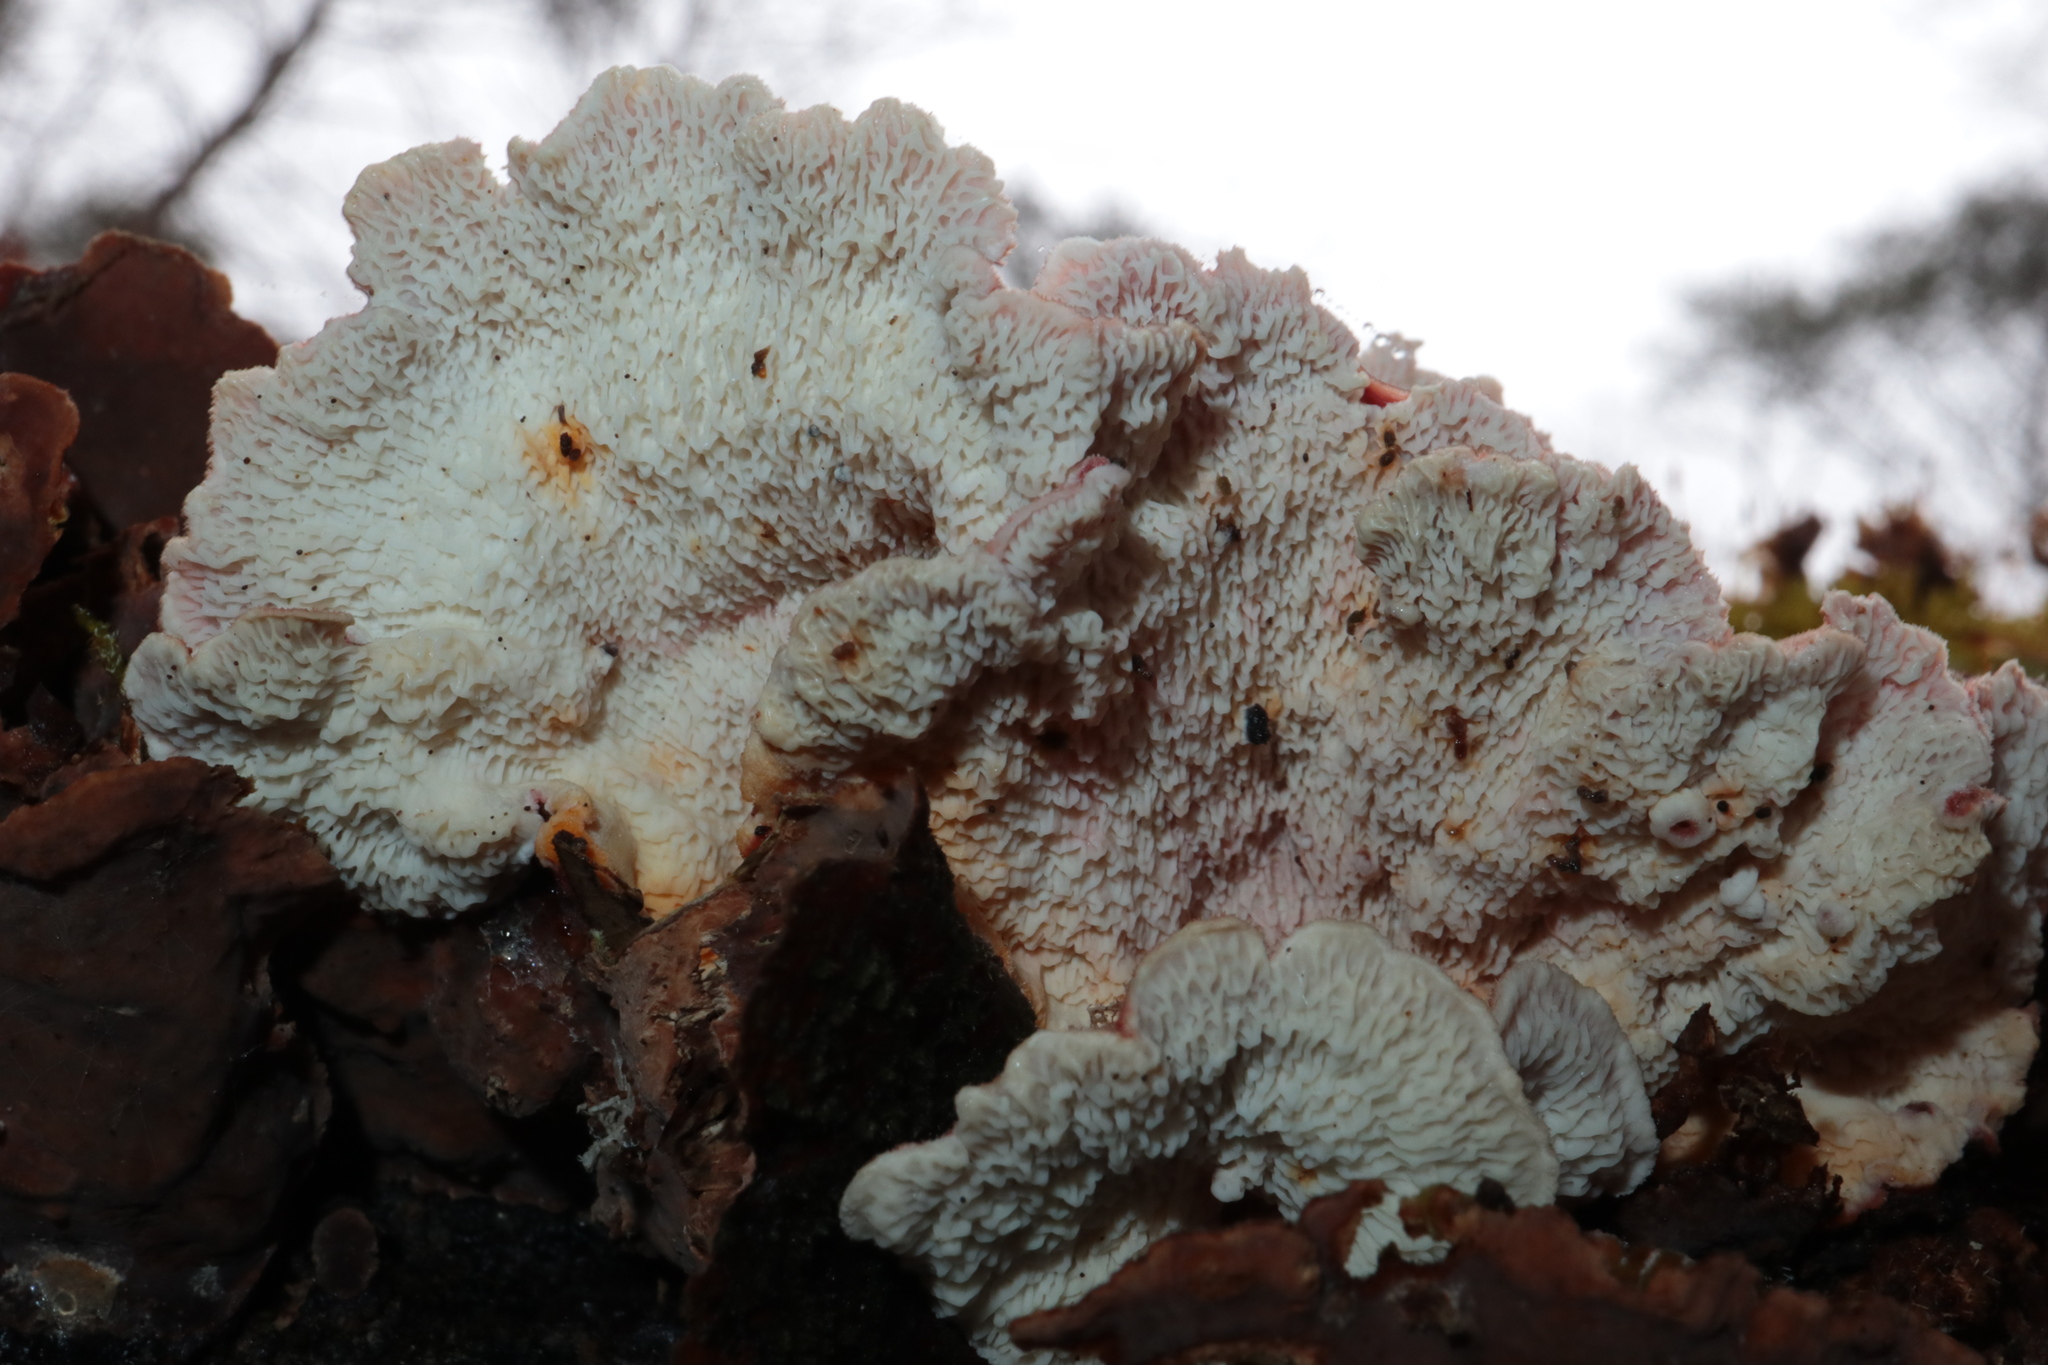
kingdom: Fungi
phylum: Basidiomycota
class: Agaricomycetes
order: Polyporales
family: Irpicaceae
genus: Byssomerulius
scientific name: Byssomerulius incarnatus
